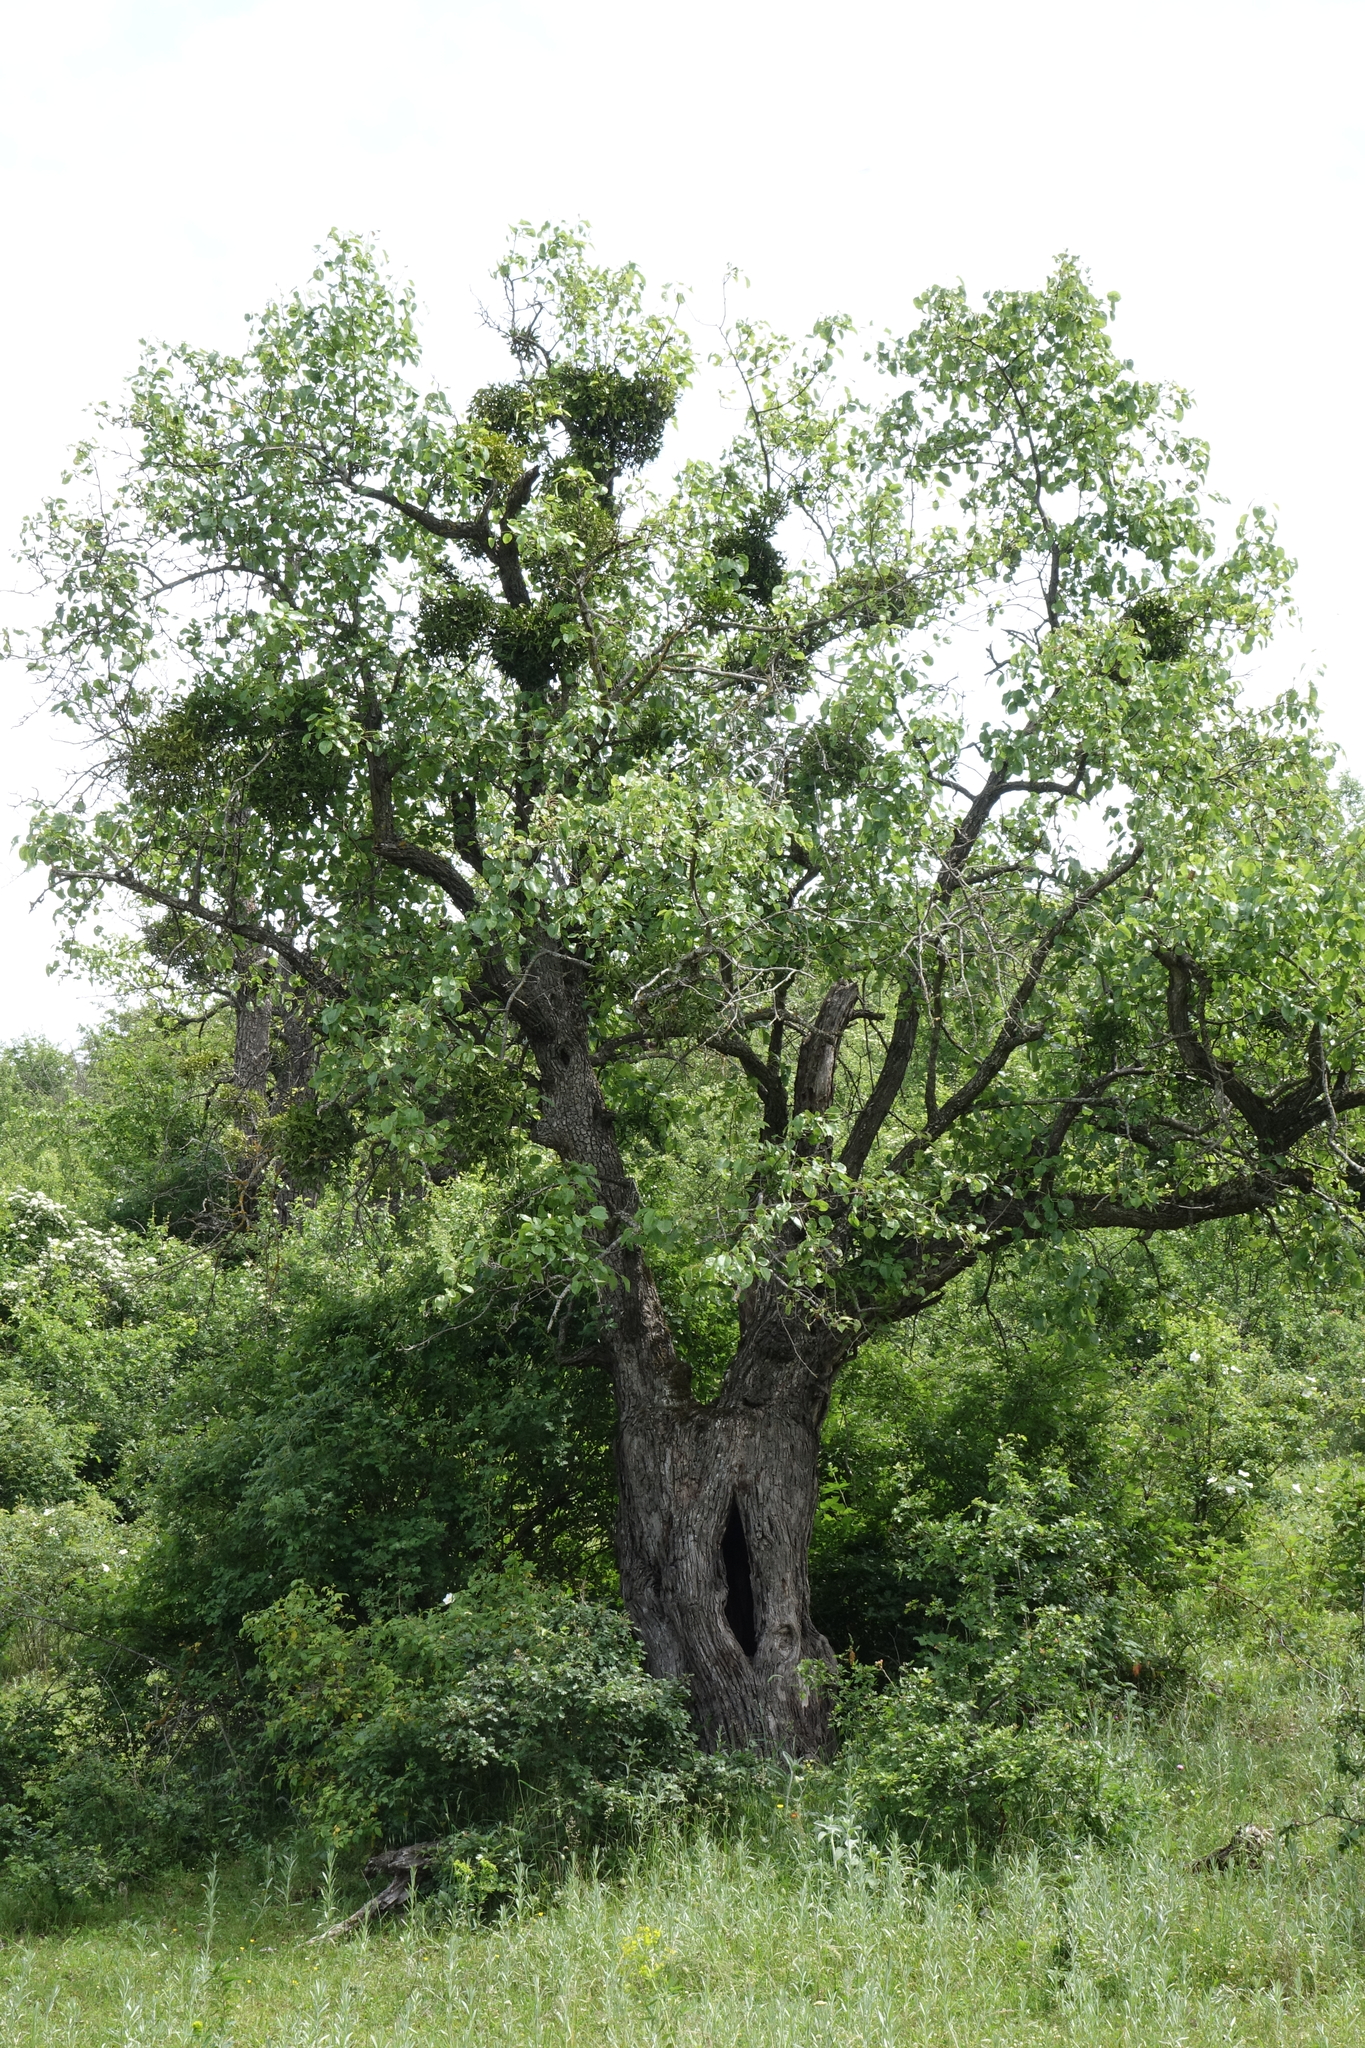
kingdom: Plantae
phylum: Tracheophyta
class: Magnoliopsida
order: Santalales
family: Viscaceae
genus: Viscum
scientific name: Viscum album
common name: Mistletoe
